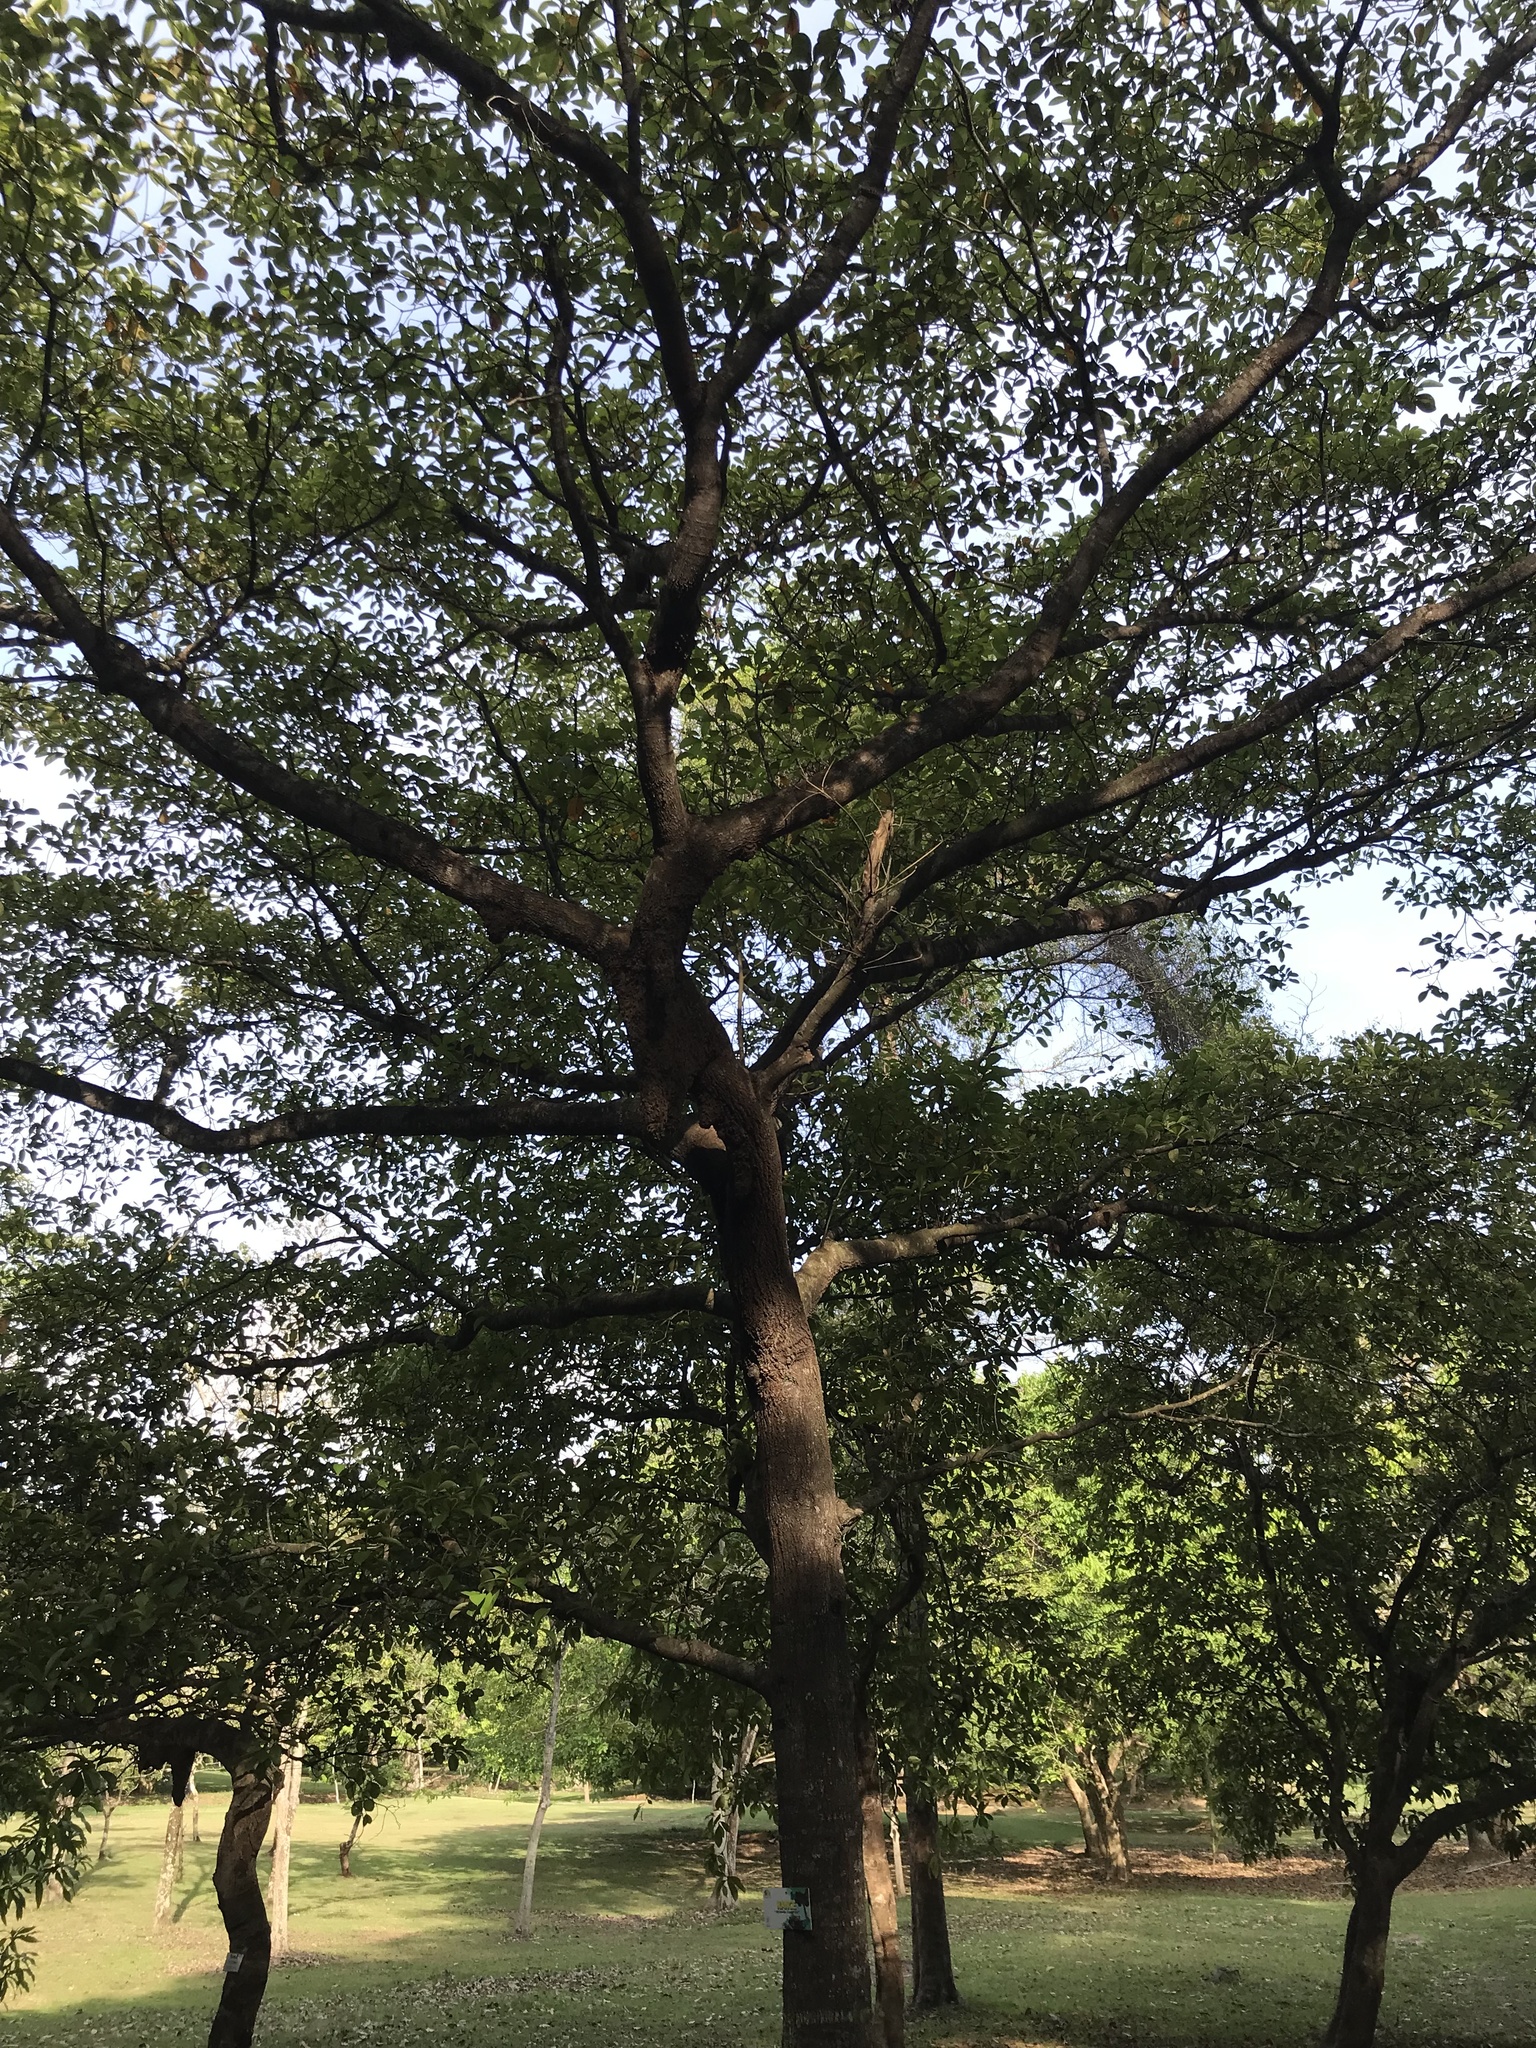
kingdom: Plantae
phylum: Tracheophyta
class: Magnoliopsida
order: Malpighiales
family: Malpighiaceae
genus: Byrsonima
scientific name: Byrsonima crassifolia
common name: Golden spoon
